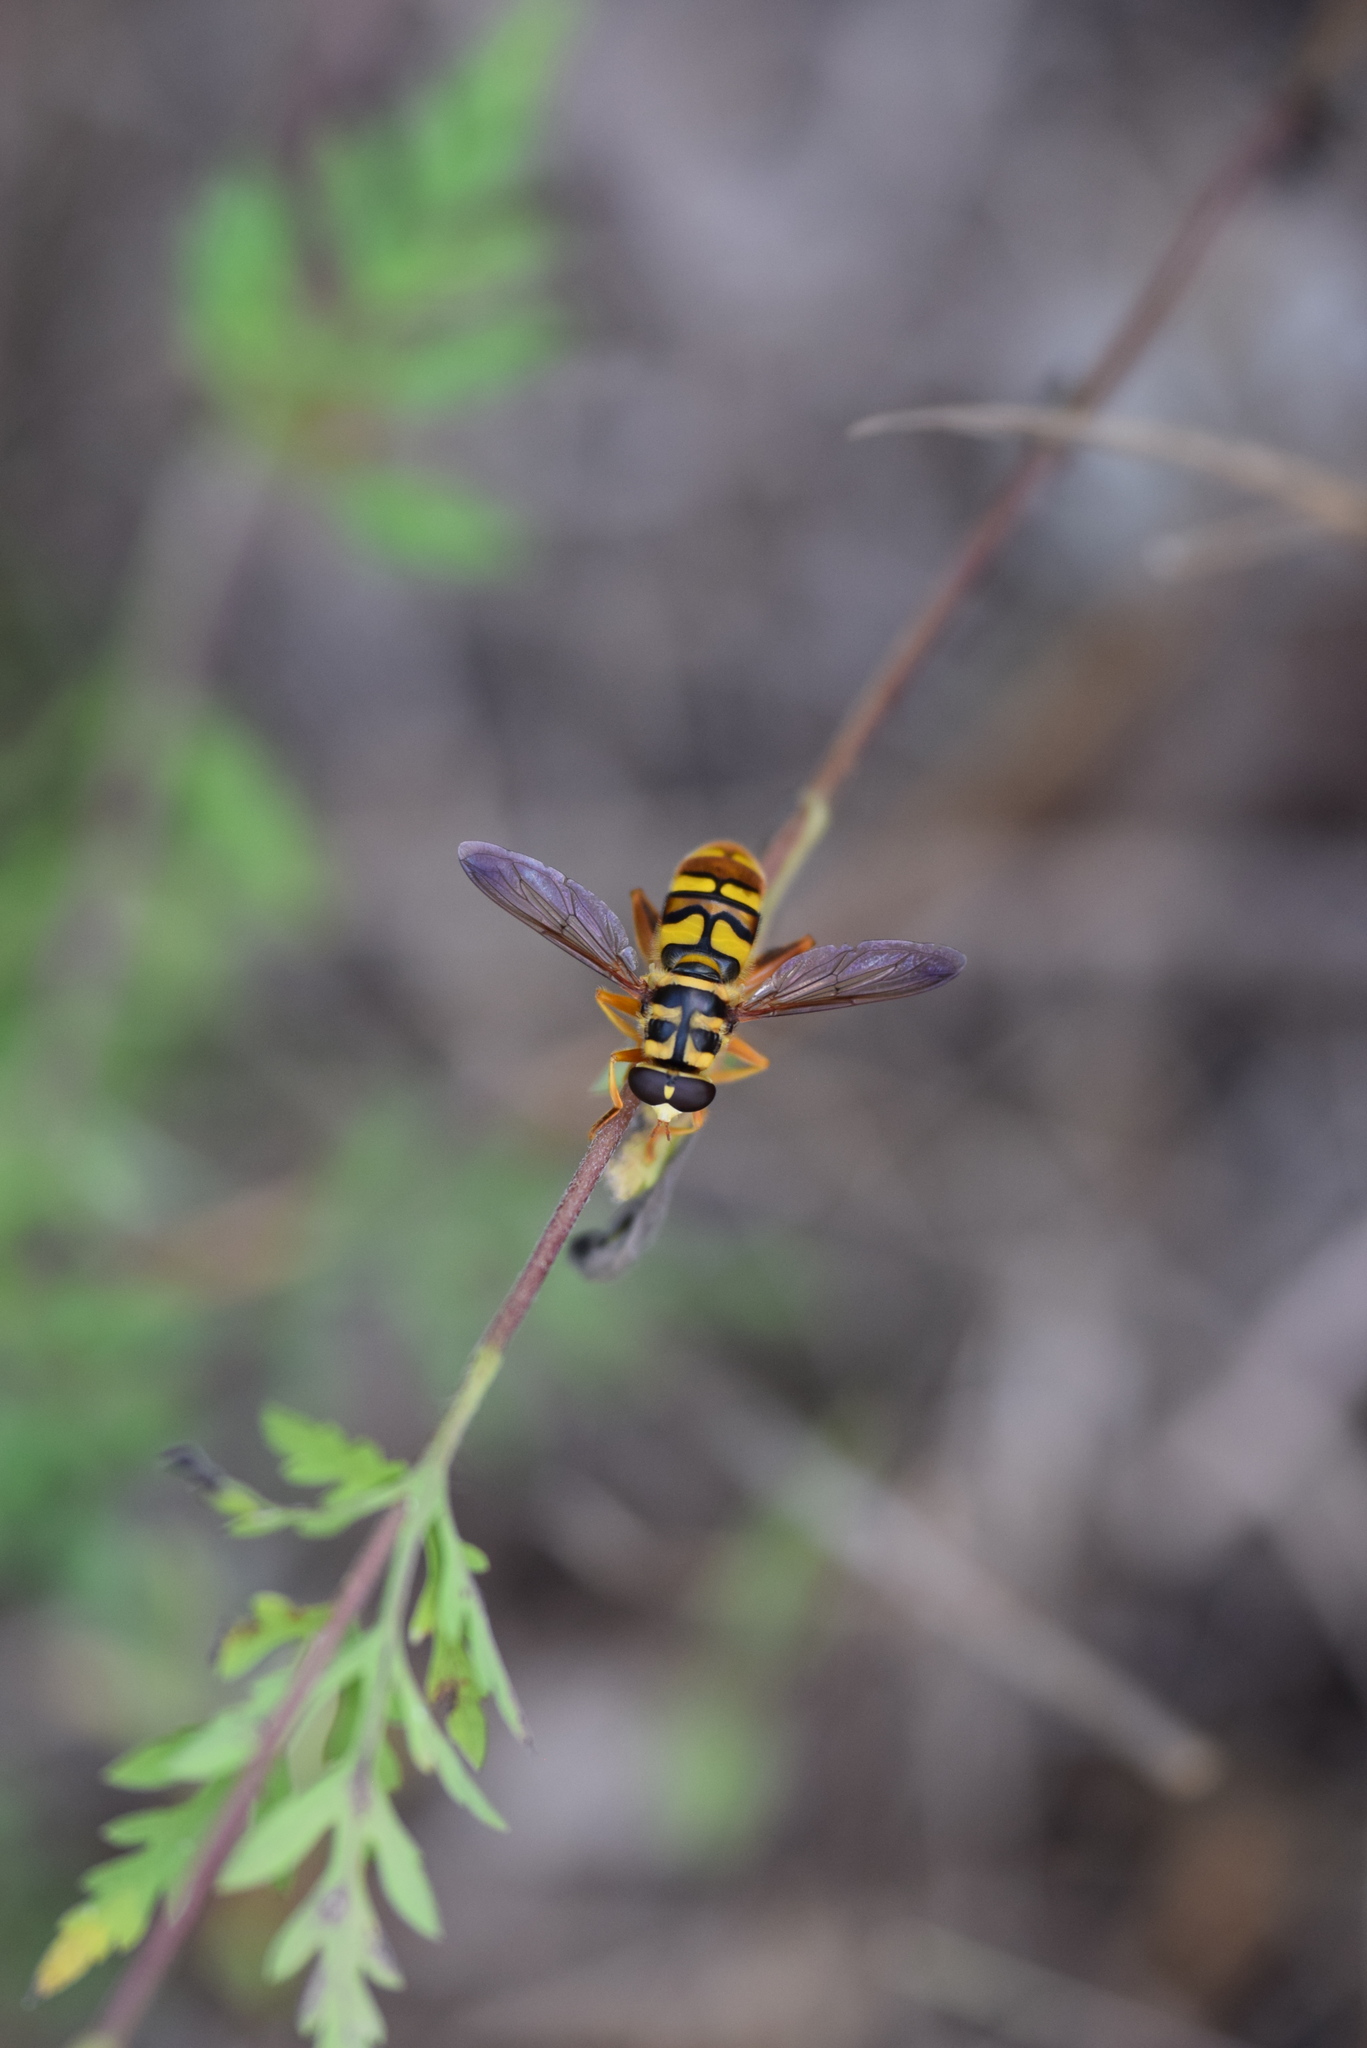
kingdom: Animalia
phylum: Arthropoda
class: Insecta
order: Diptera
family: Syrphidae
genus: Milesia
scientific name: Milesia virginiensis
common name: Virginia giant
